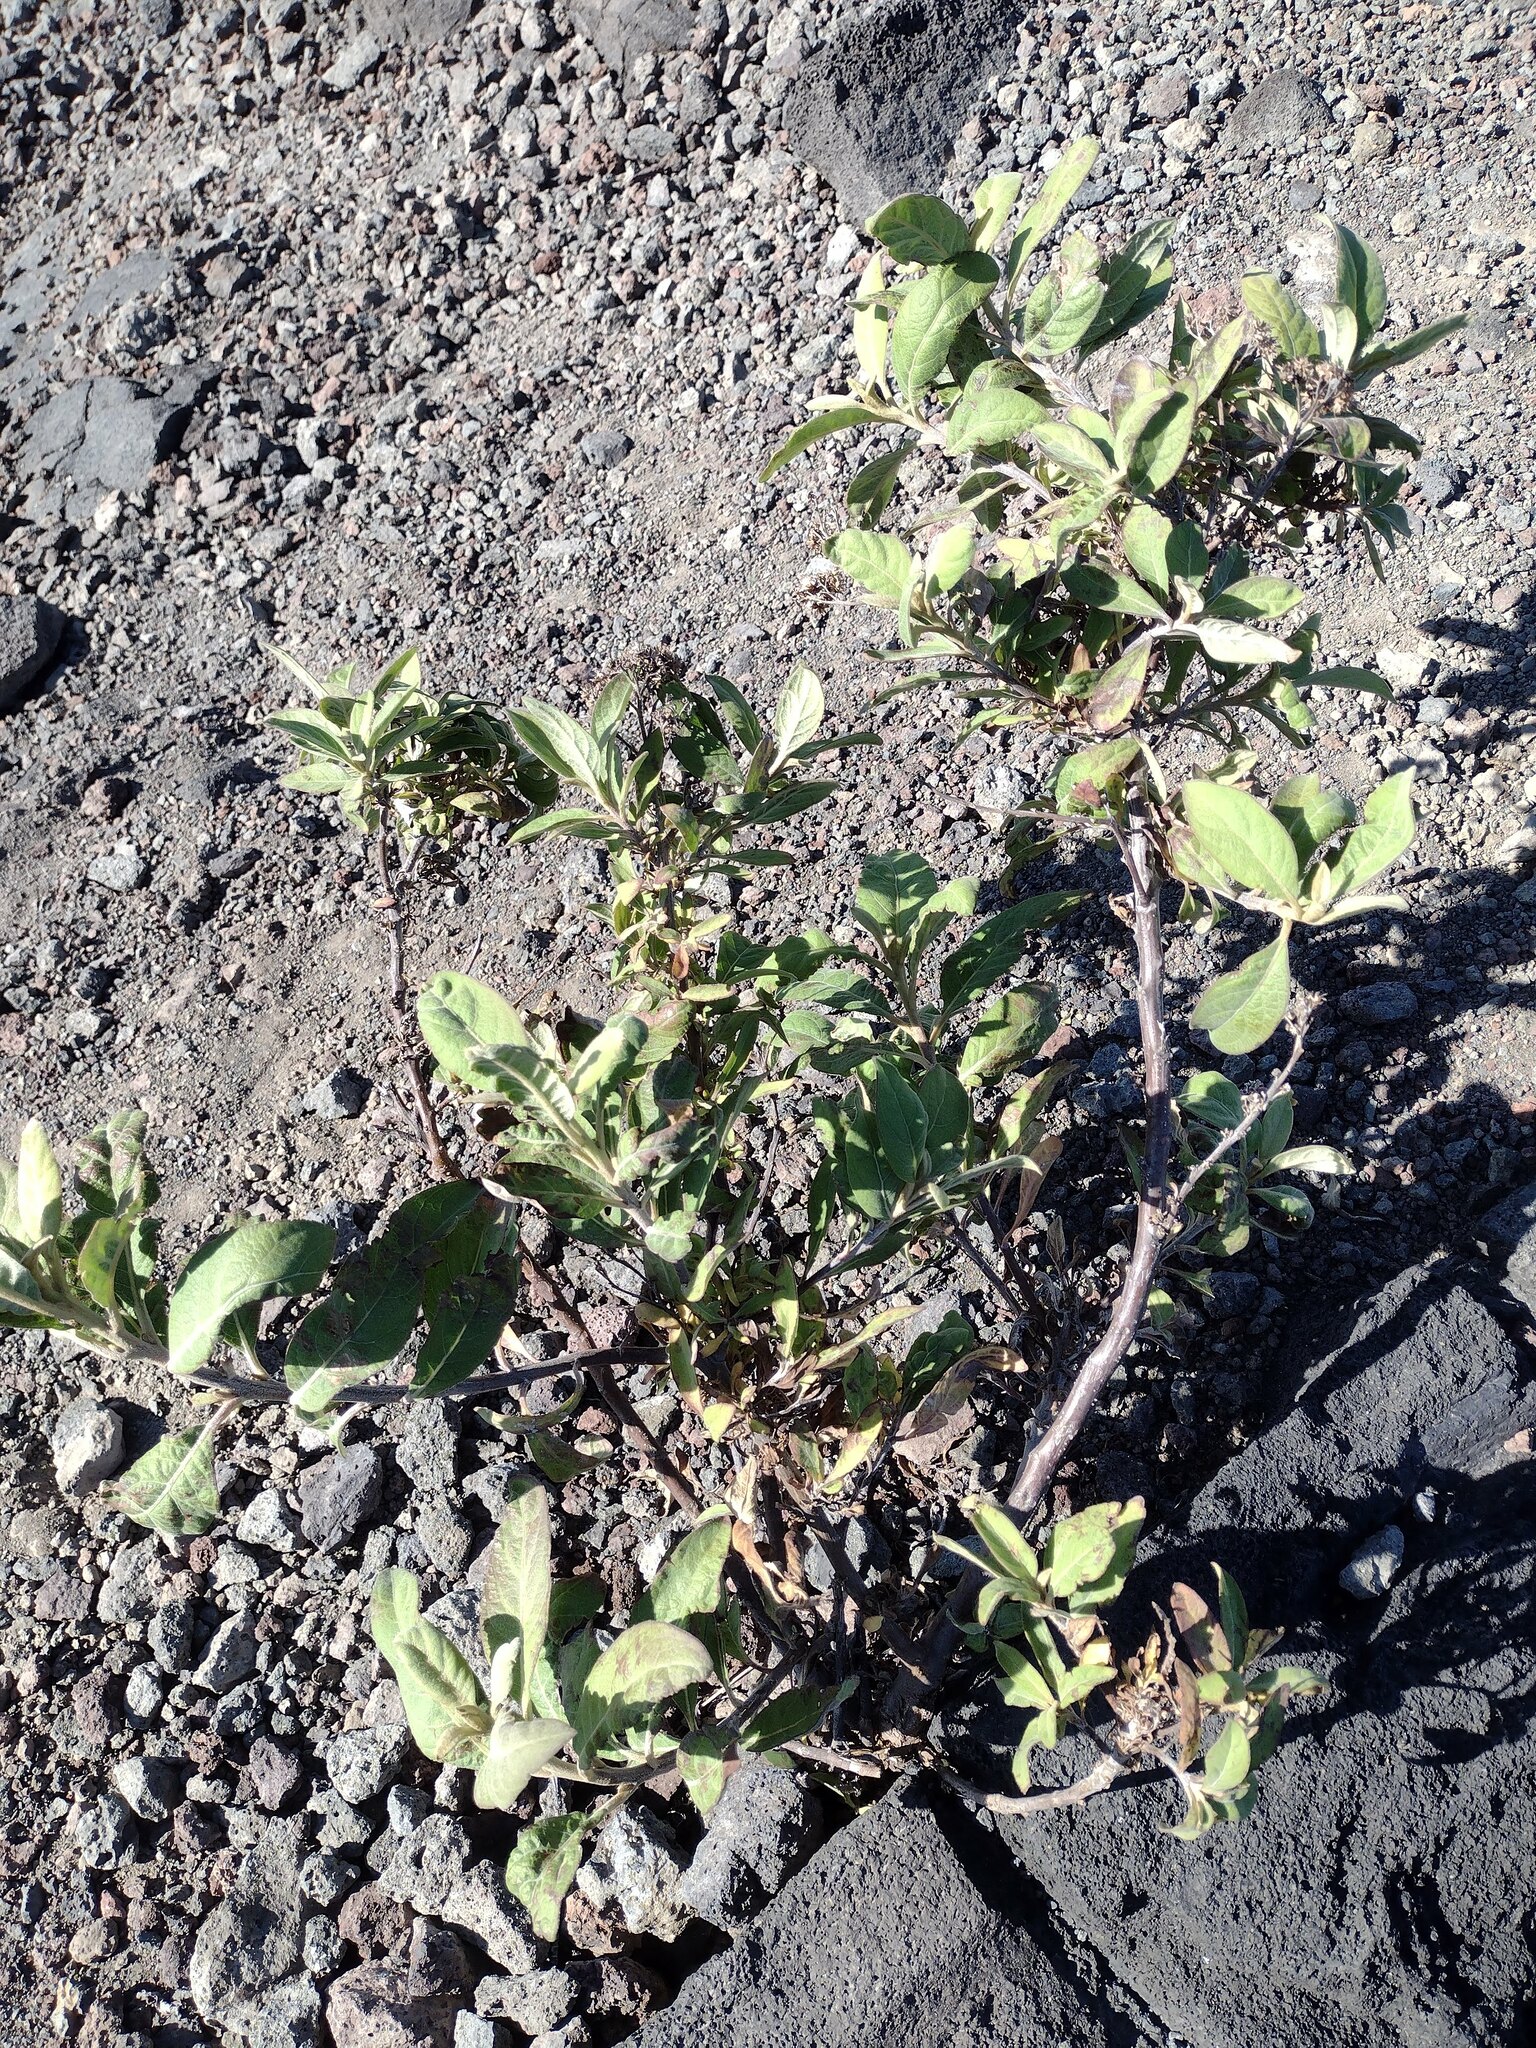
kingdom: Plantae
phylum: Tracheophyta
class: Magnoliopsida
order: Asterales
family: Asteraceae
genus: Pluchea
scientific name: Pluchea carolinensis
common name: Marsh fleabane
